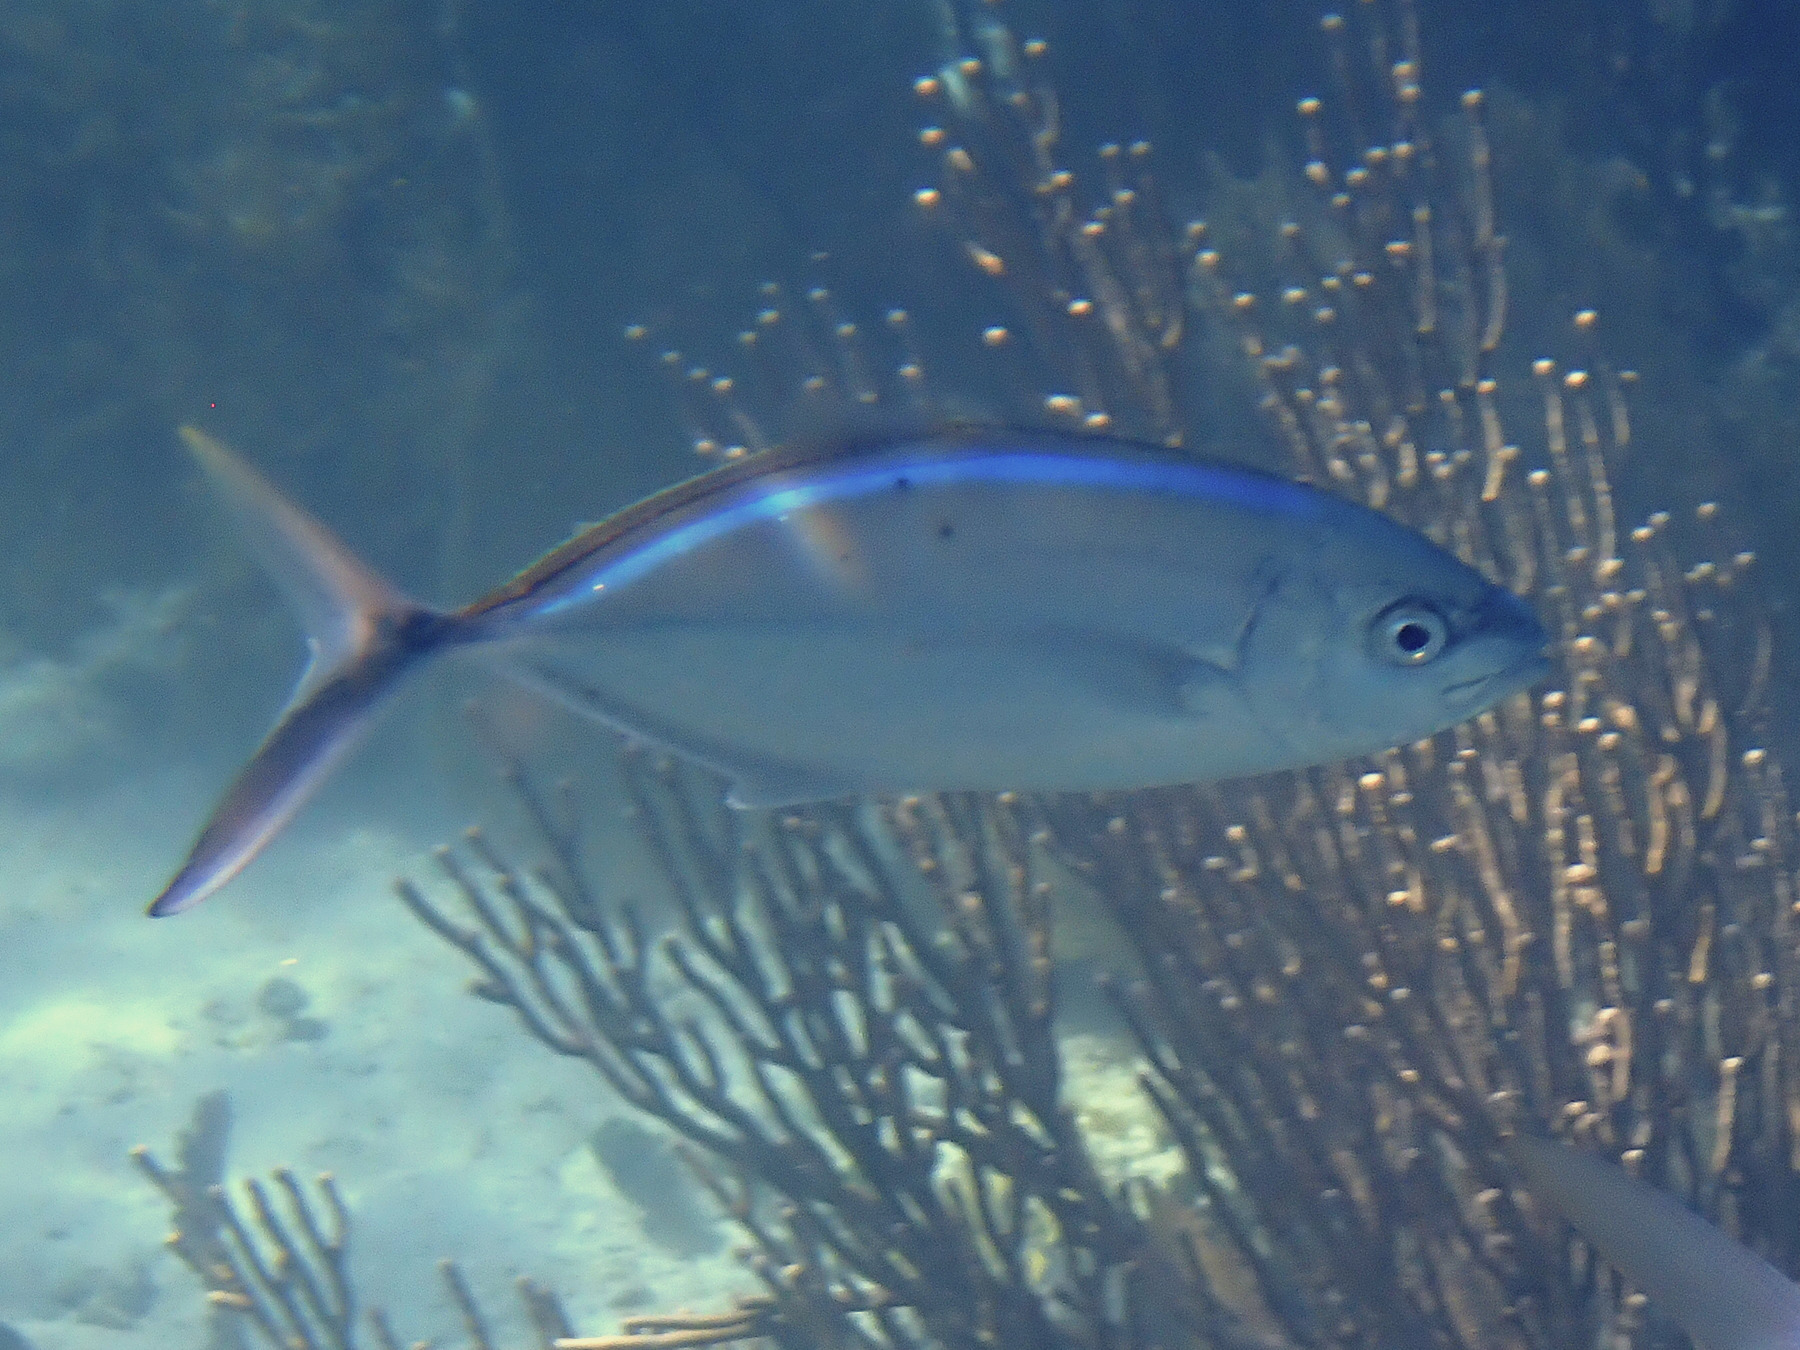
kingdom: Animalia
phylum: Chordata
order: Perciformes
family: Carangidae
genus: Caranx
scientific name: Caranx ruber
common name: Bar jack
